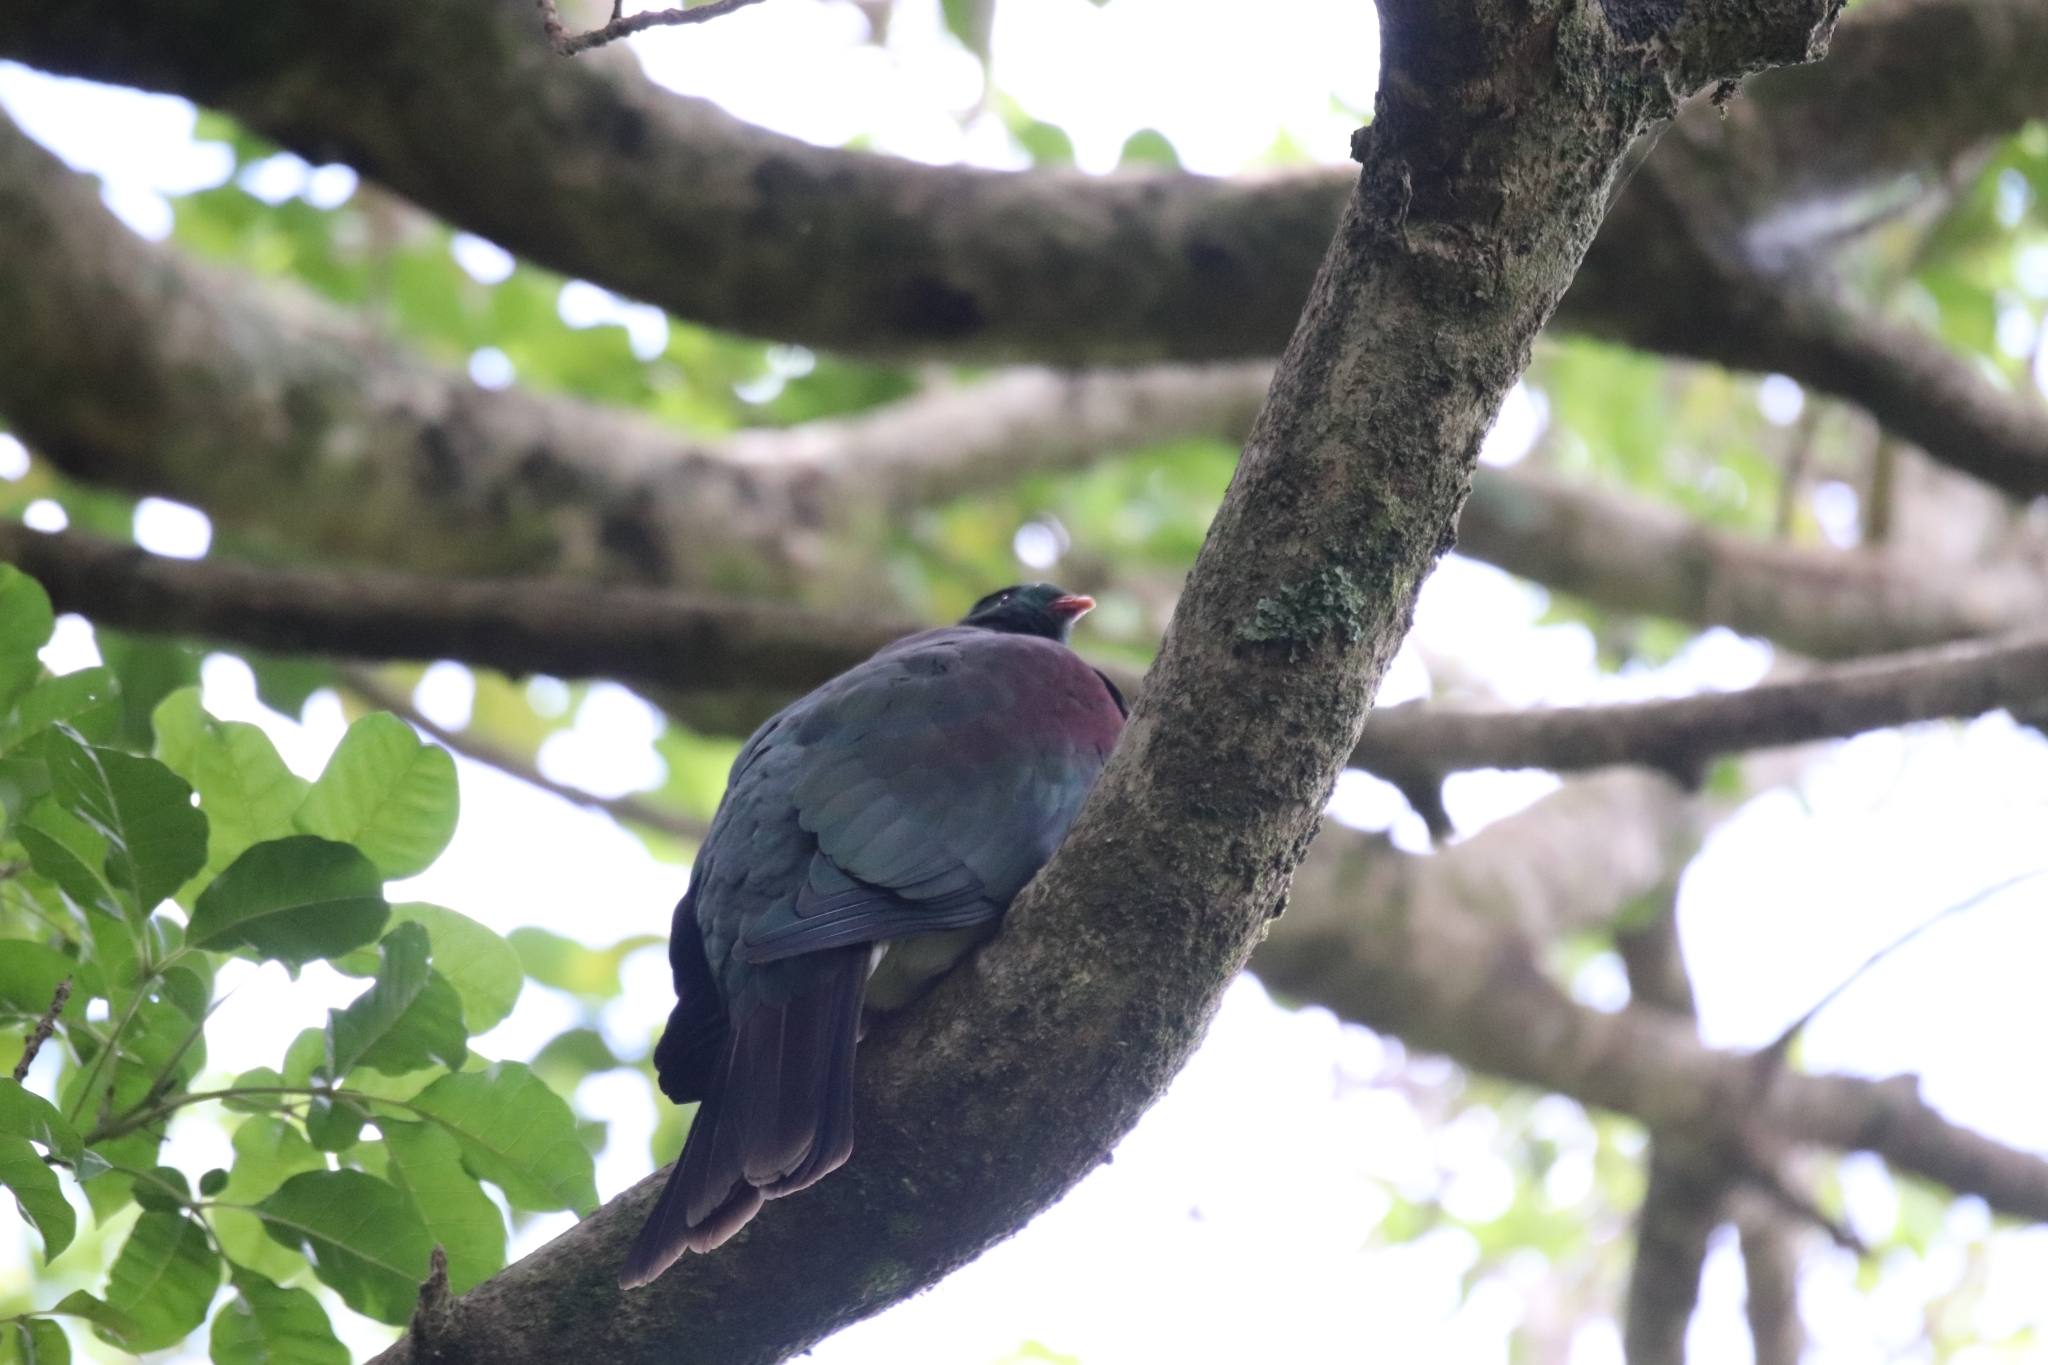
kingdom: Animalia
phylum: Chordata
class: Aves
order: Columbiformes
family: Columbidae
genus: Hemiphaga
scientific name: Hemiphaga novaeseelandiae
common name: New zealand pigeon
